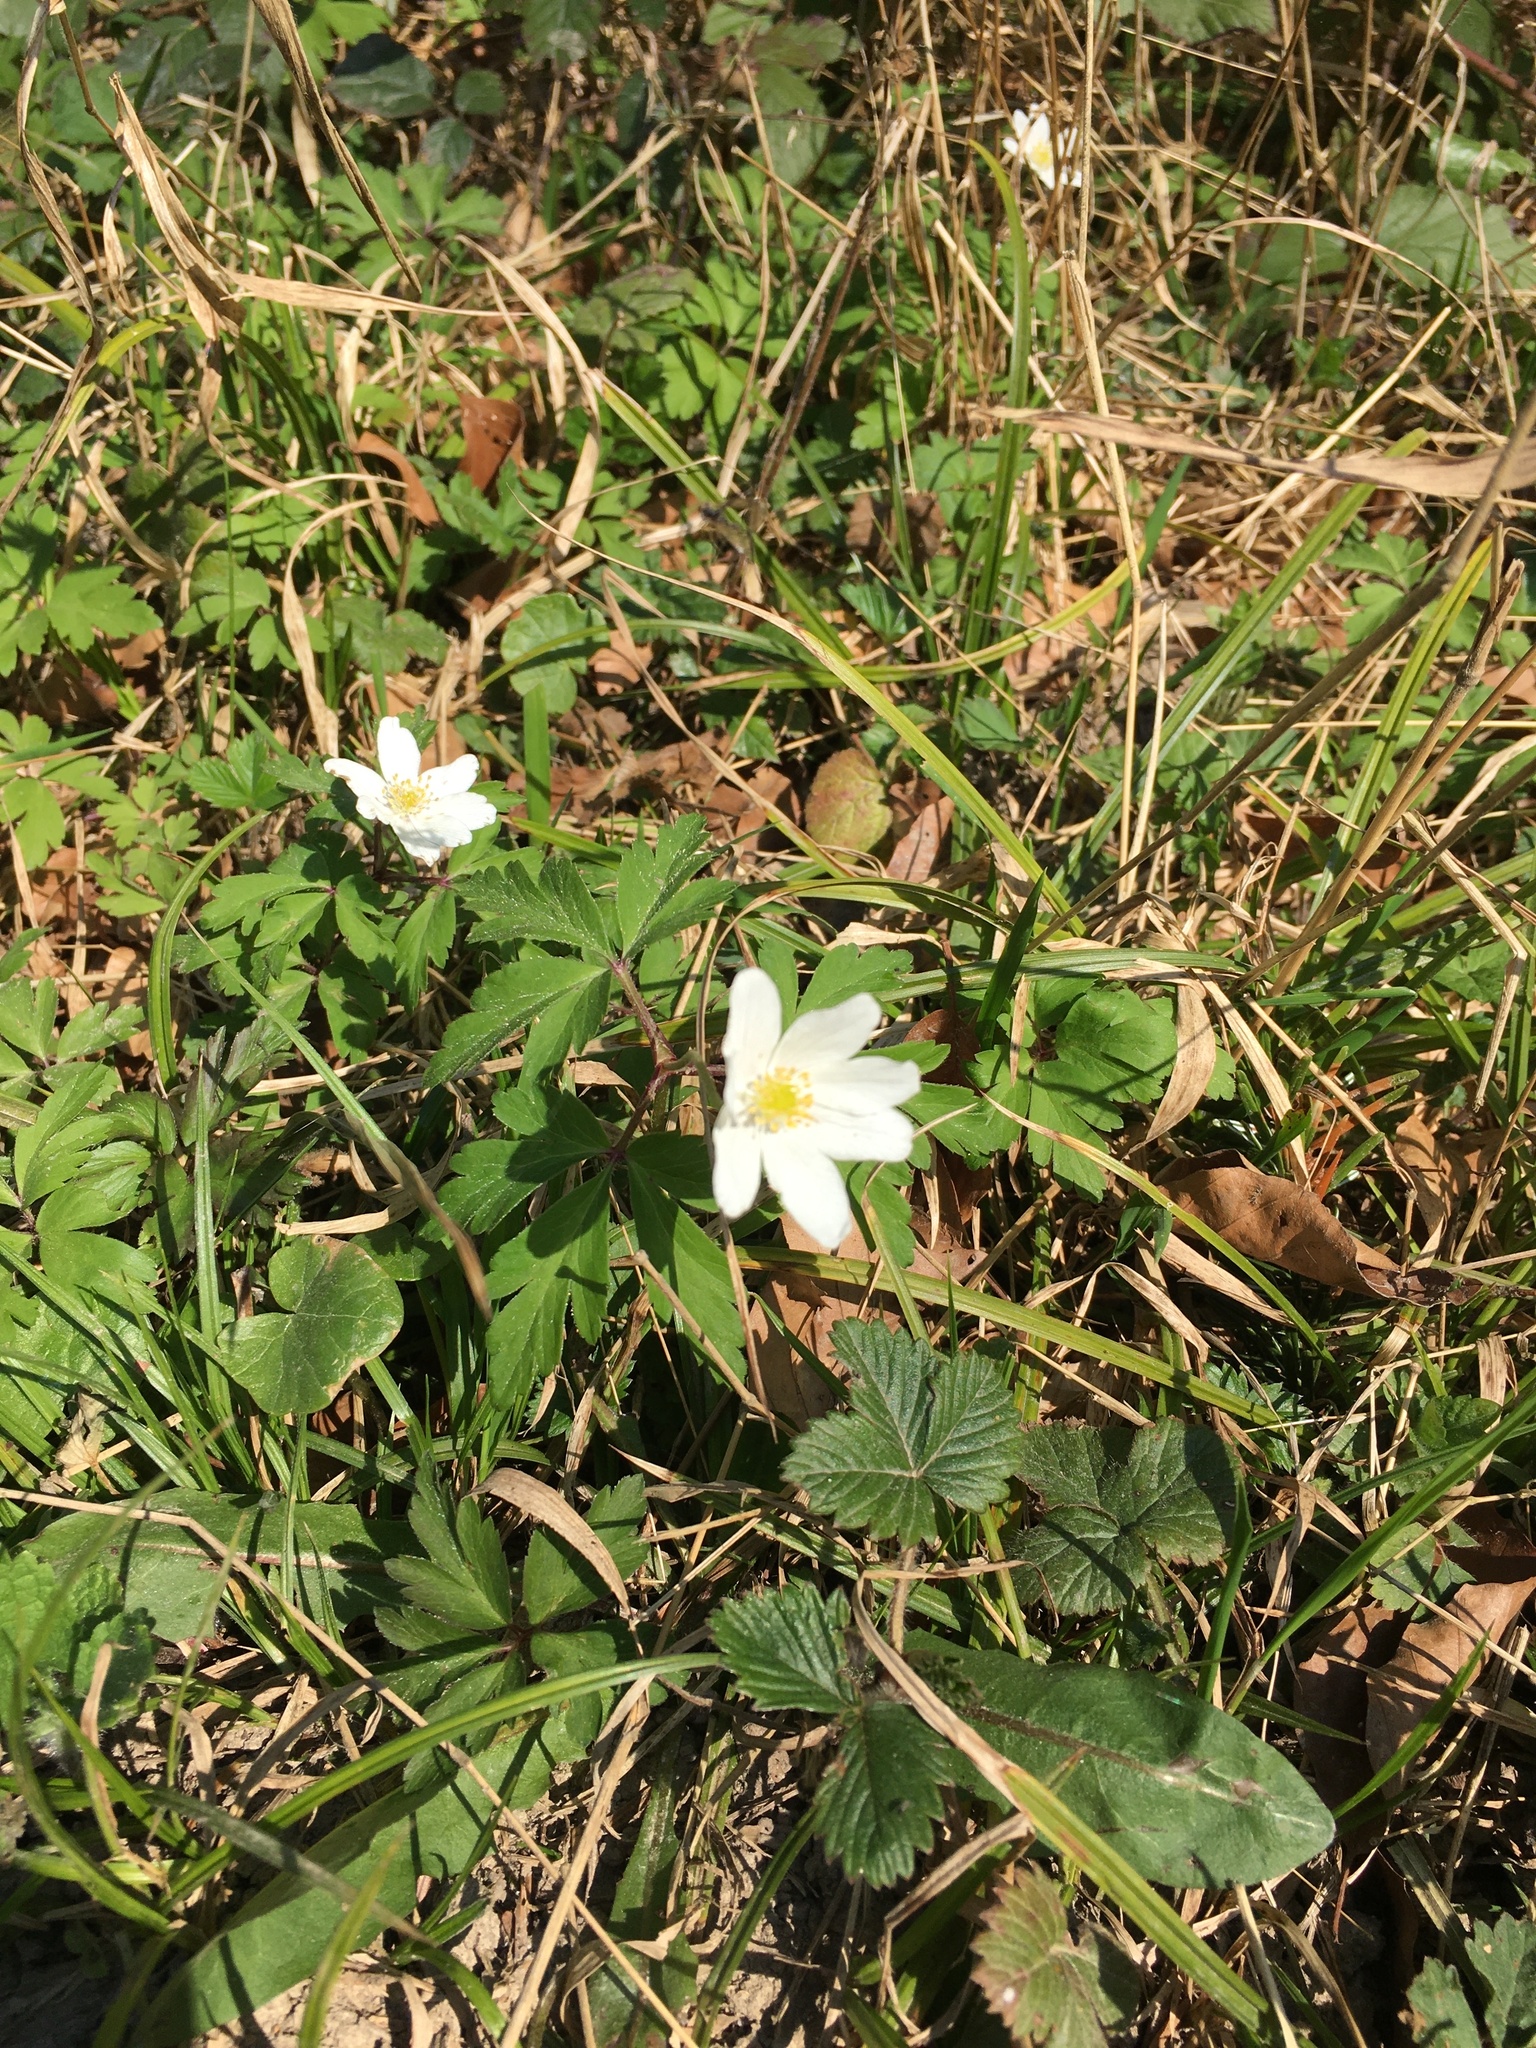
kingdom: Plantae
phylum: Tracheophyta
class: Magnoliopsida
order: Ranunculales
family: Ranunculaceae
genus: Anemone
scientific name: Anemone nemorosa
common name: Wood anemone
